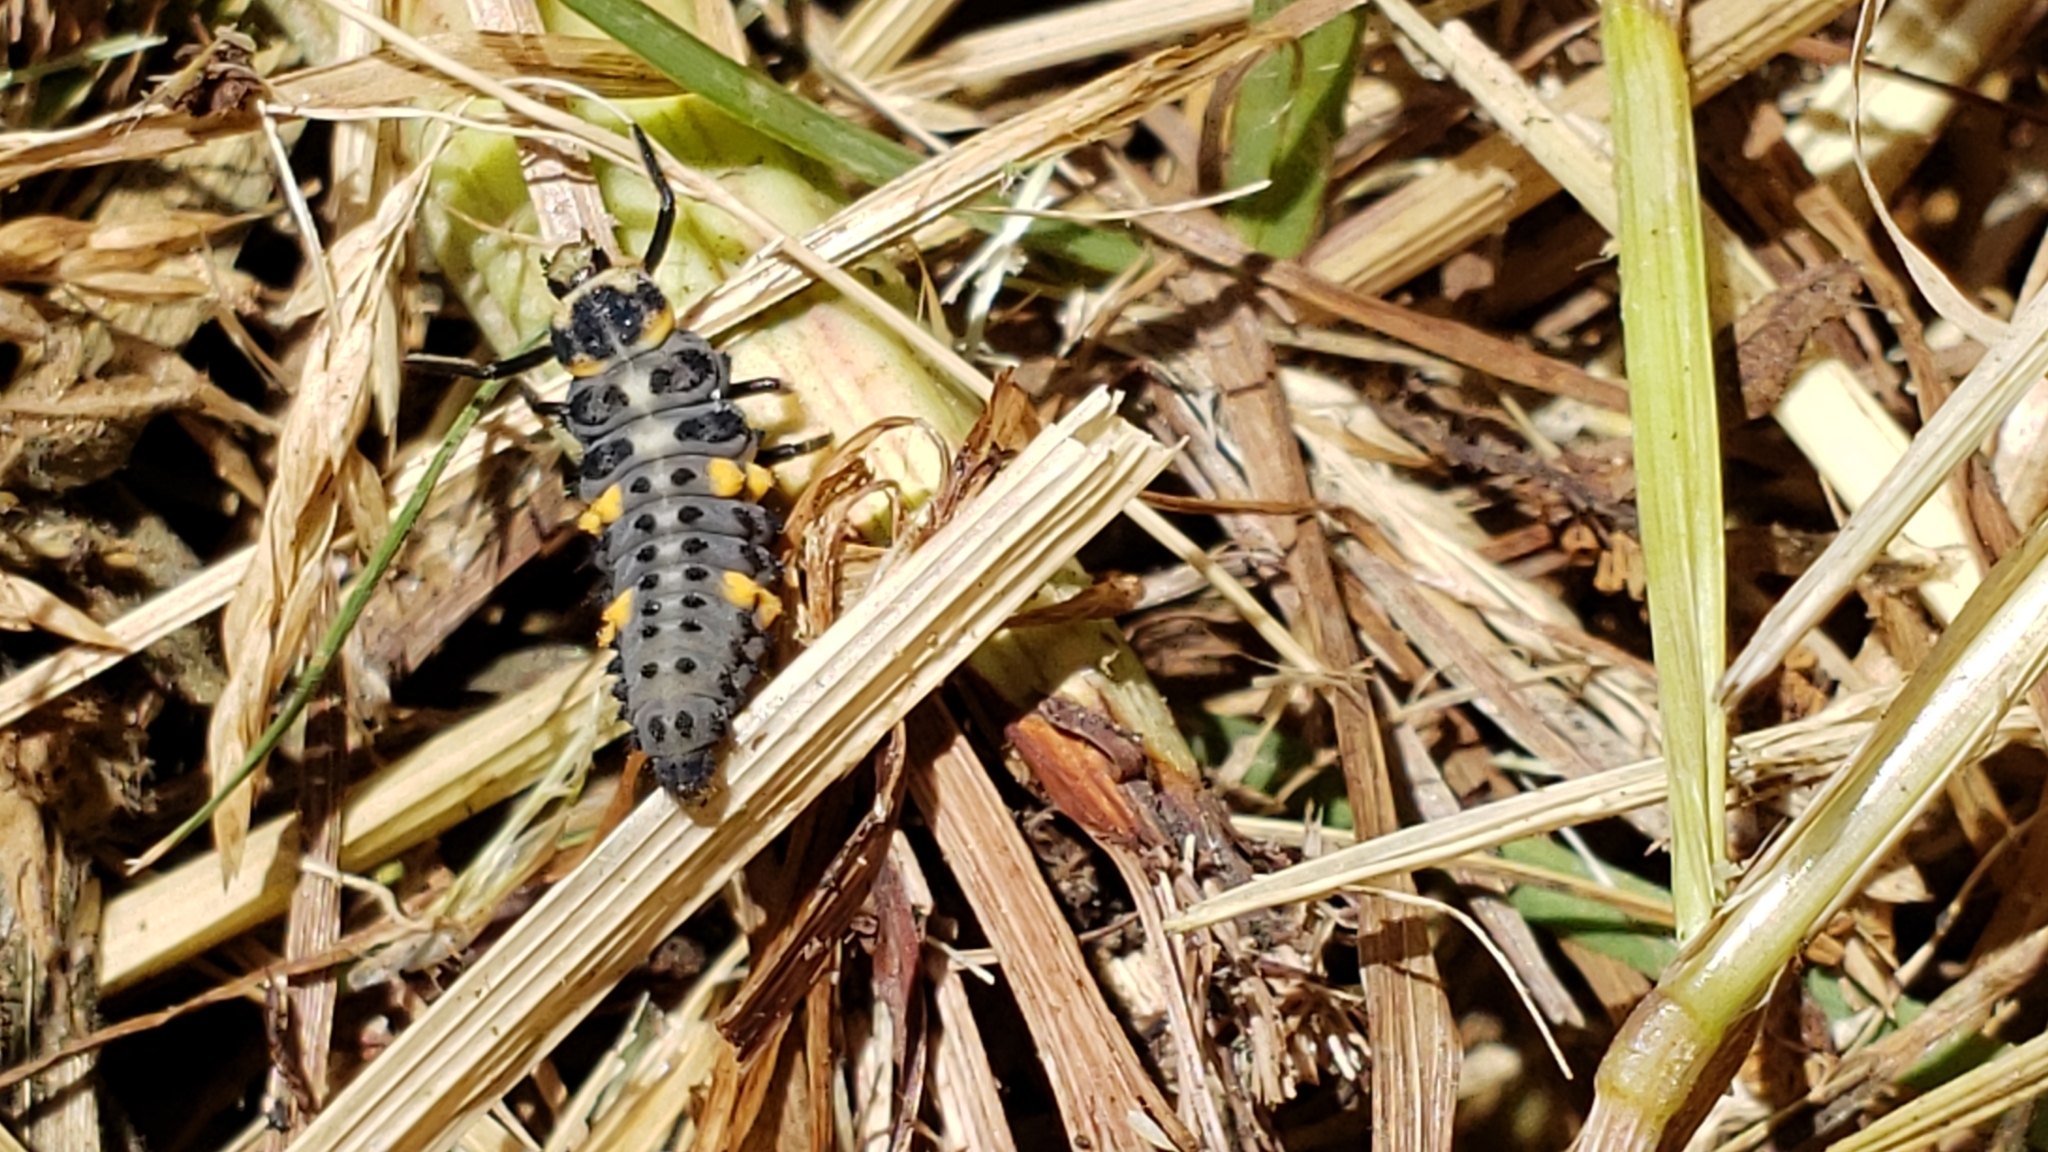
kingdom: Animalia
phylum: Arthropoda
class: Insecta
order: Coleoptera
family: Coccinellidae
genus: Coccinella
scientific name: Coccinella septempunctata
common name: Sevenspotted lady beetle
